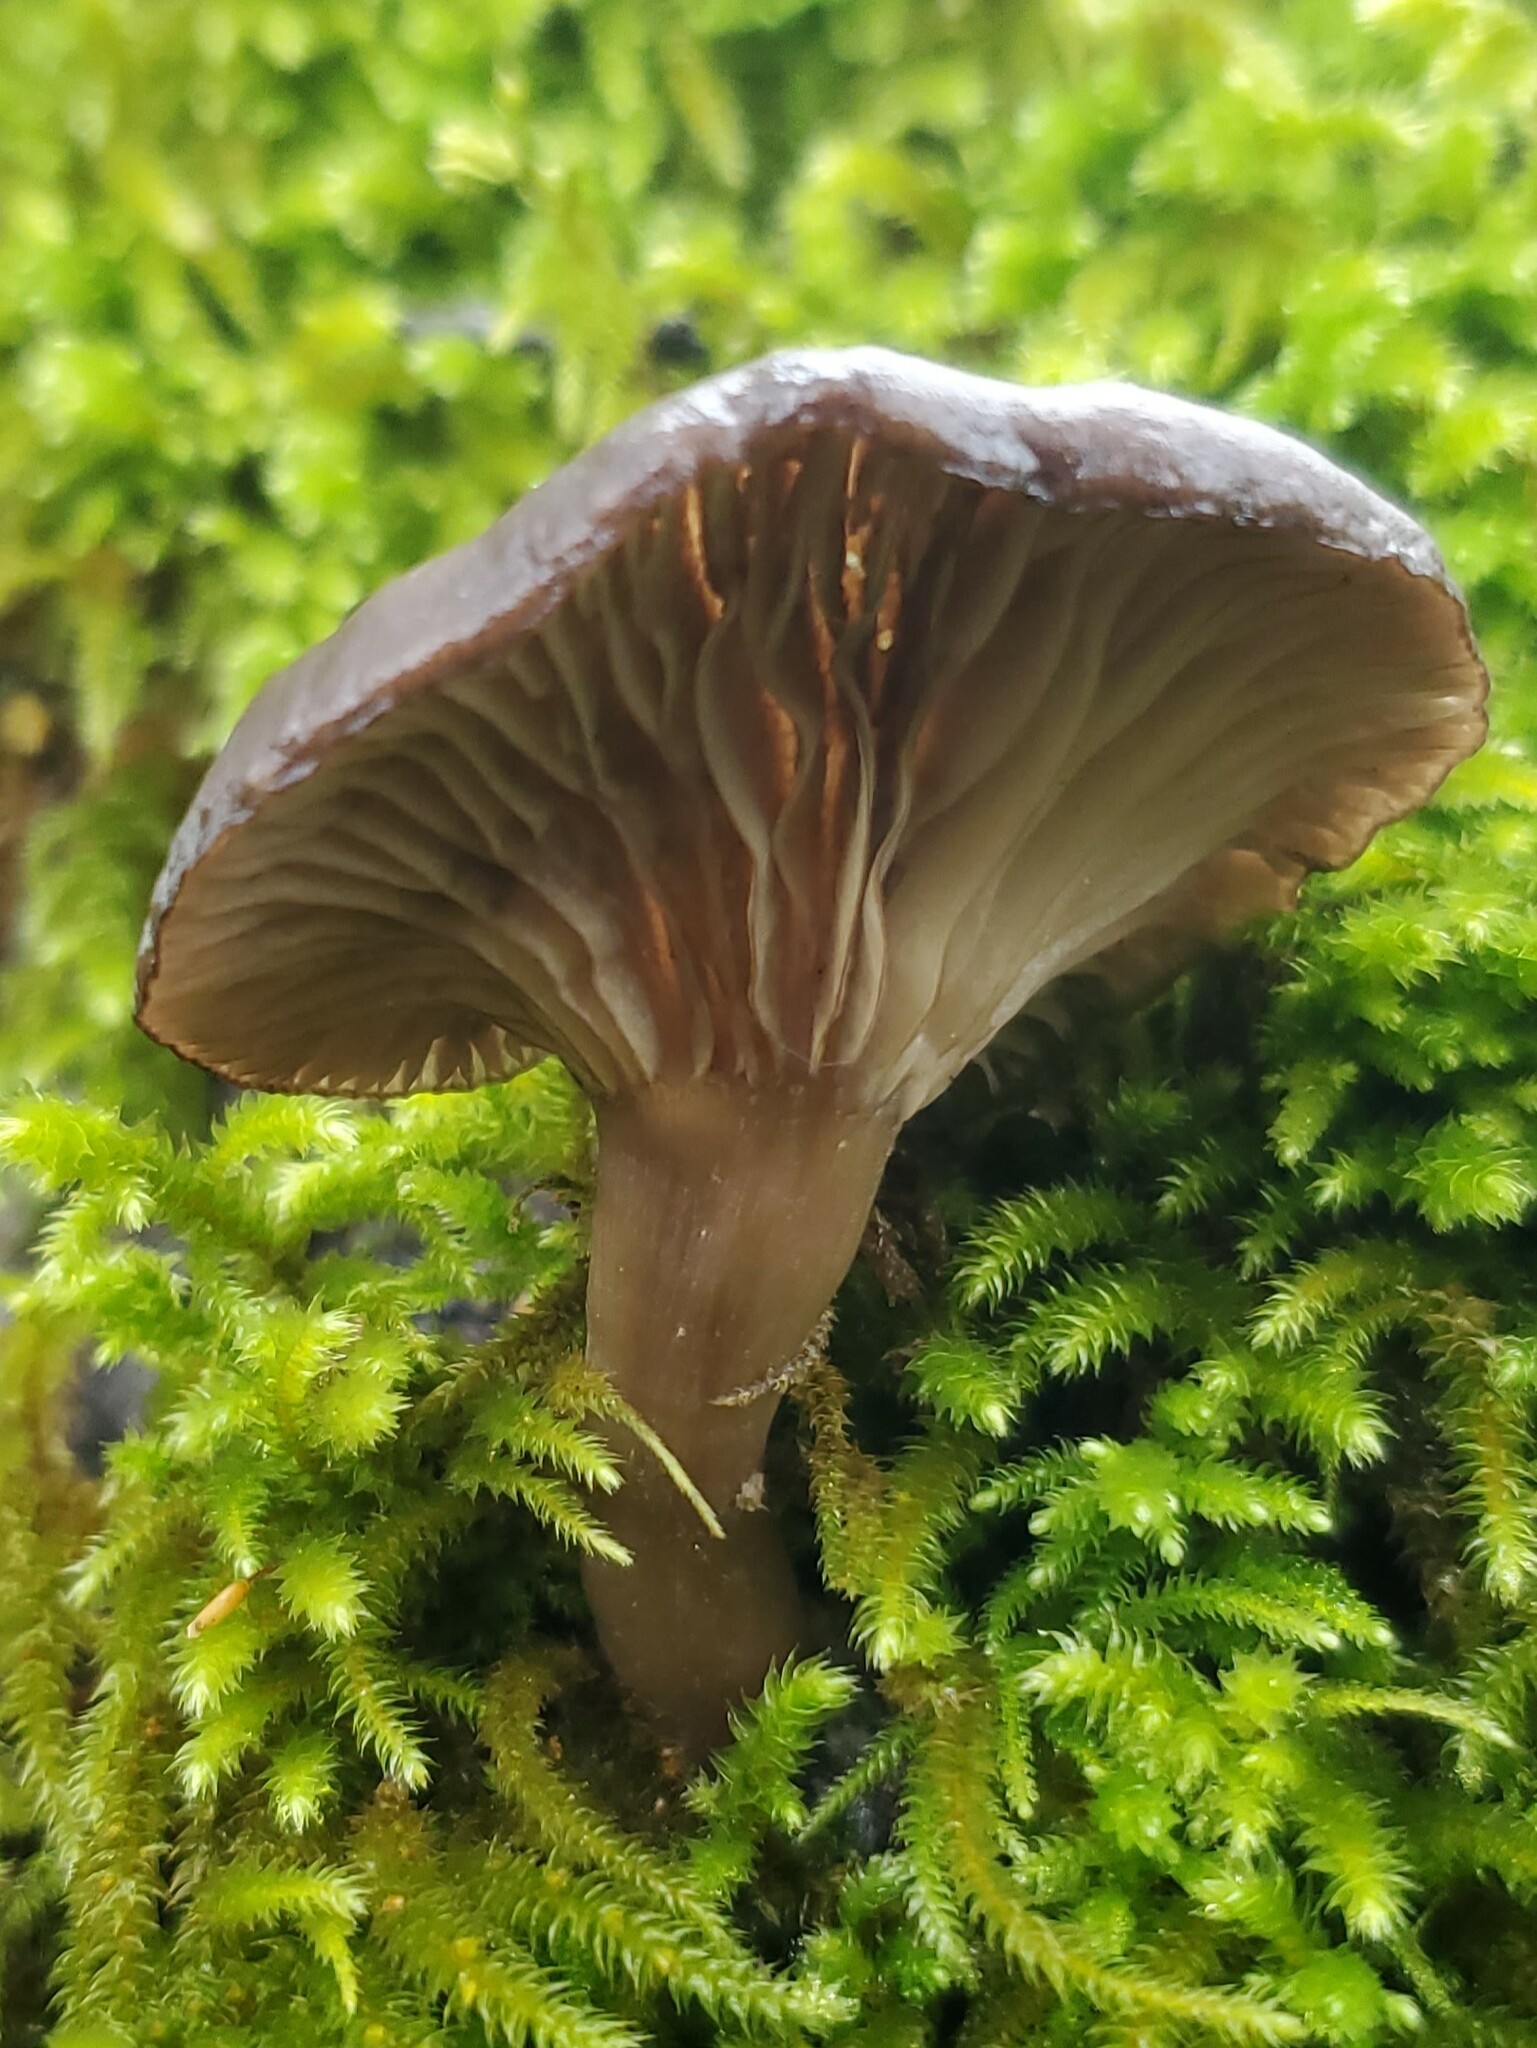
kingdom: Fungi
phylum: Basidiomycota
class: Agaricomycetes
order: Agaricales
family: Pseudoclitocybaceae
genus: Pseudoclitocybe
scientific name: Pseudoclitocybe cyathiformis
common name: Goblet
